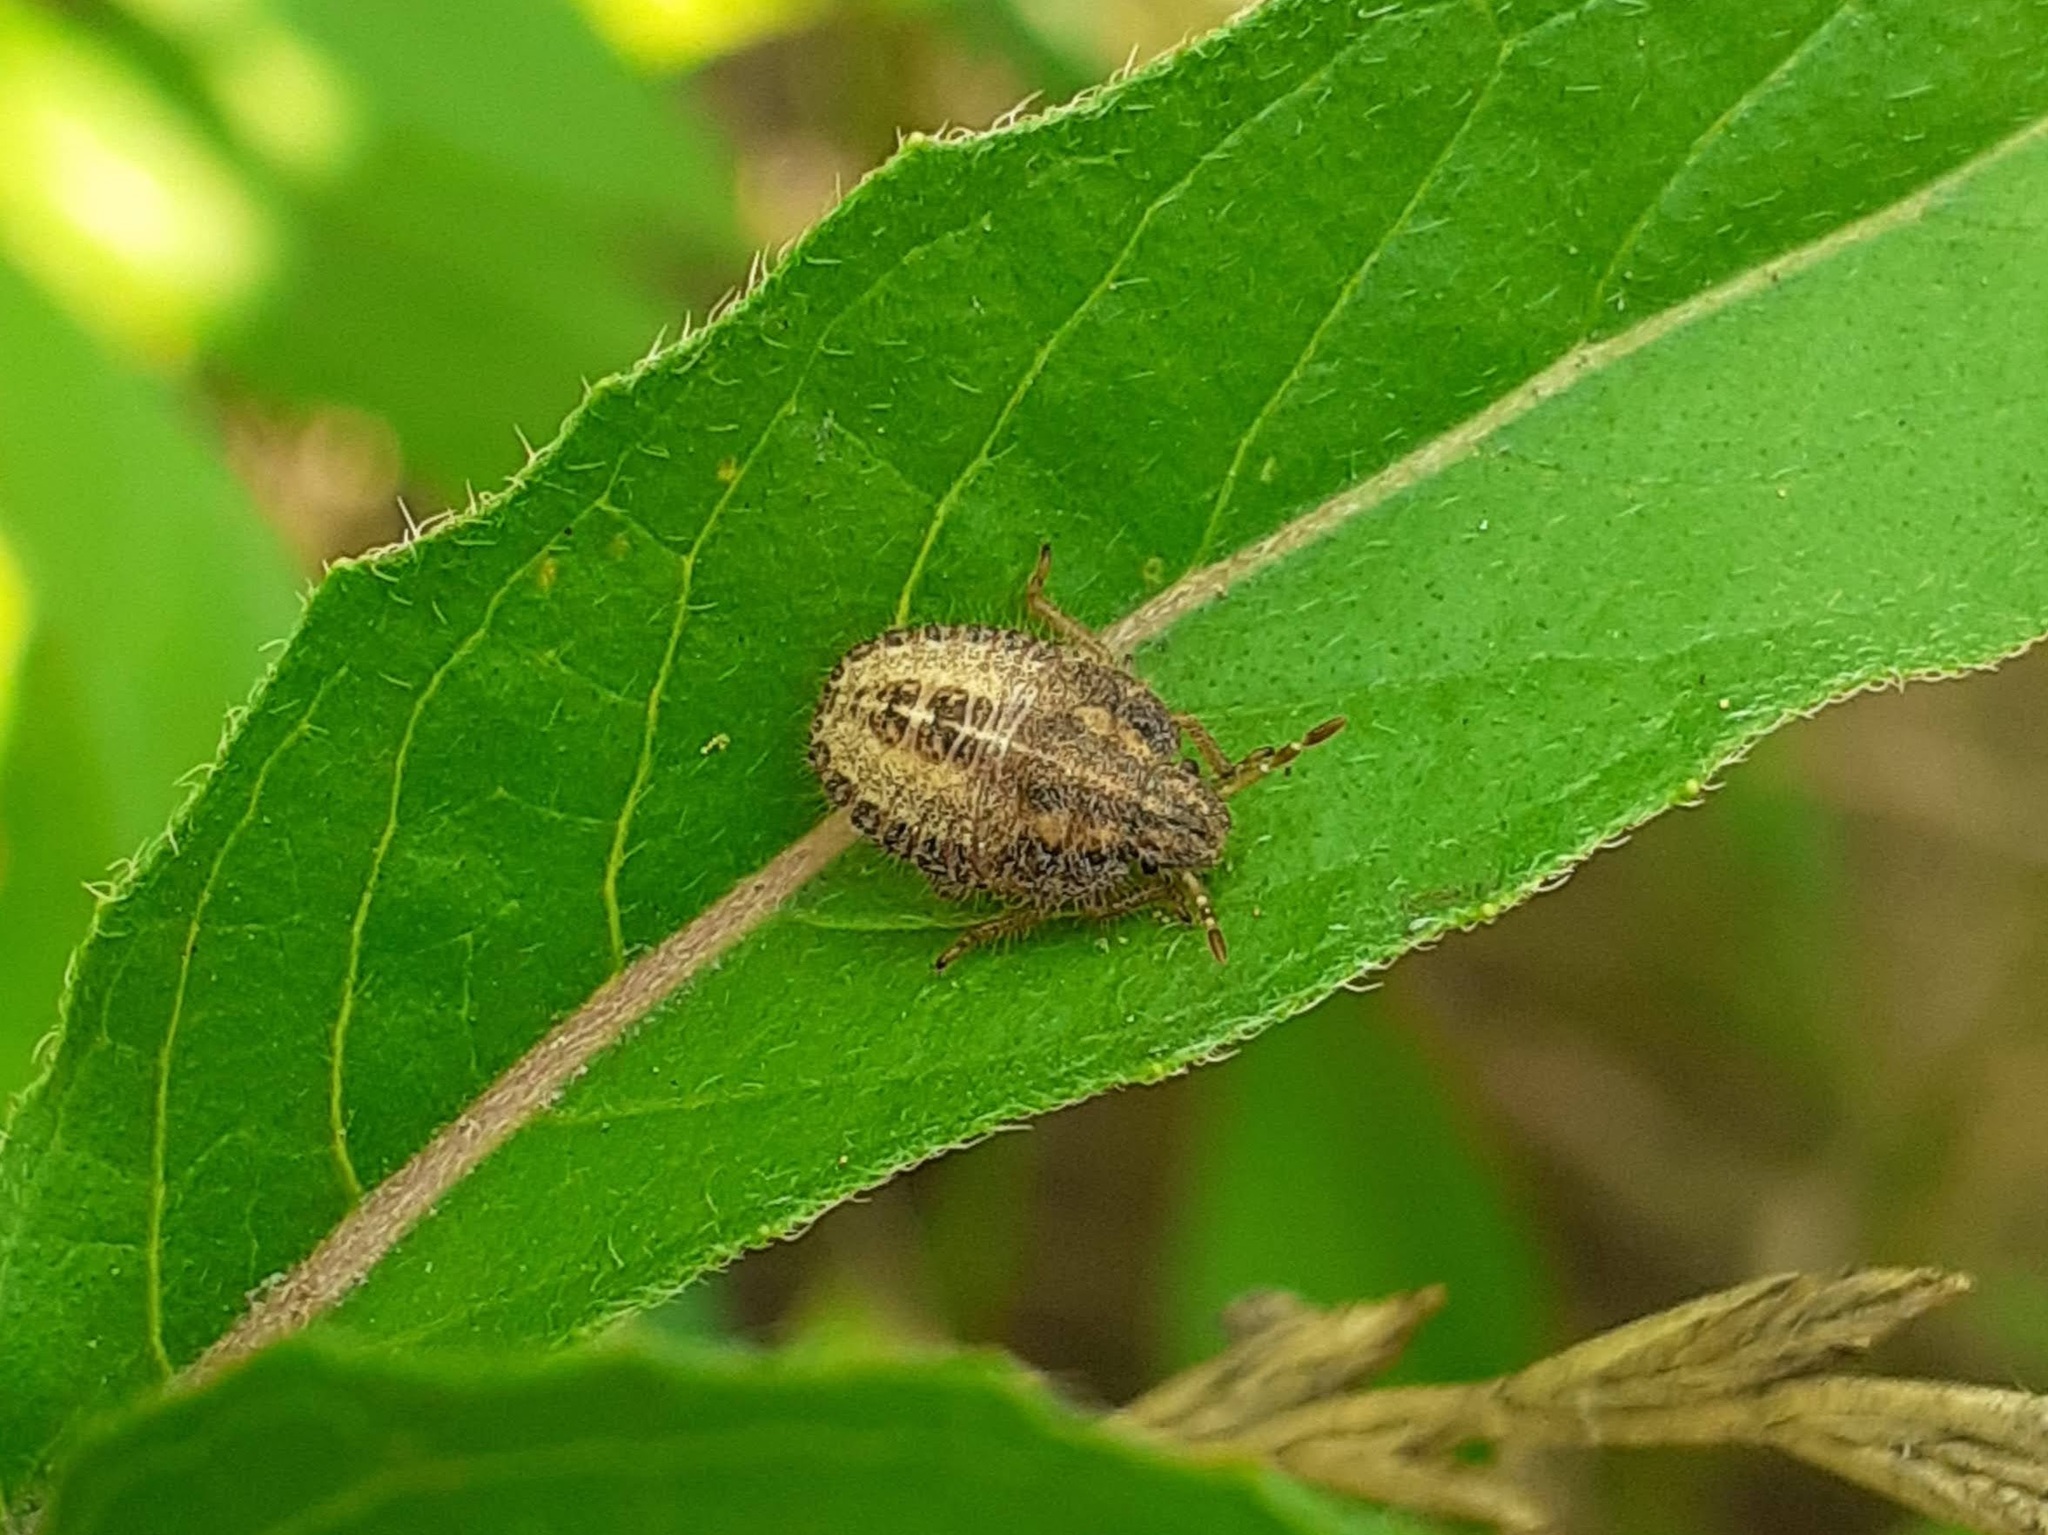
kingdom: Animalia
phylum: Arthropoda
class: Insecta
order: Hemiptera
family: Pentatomidae
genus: Dolycoris
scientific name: Dolycoris baccarum
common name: Sloe bug
